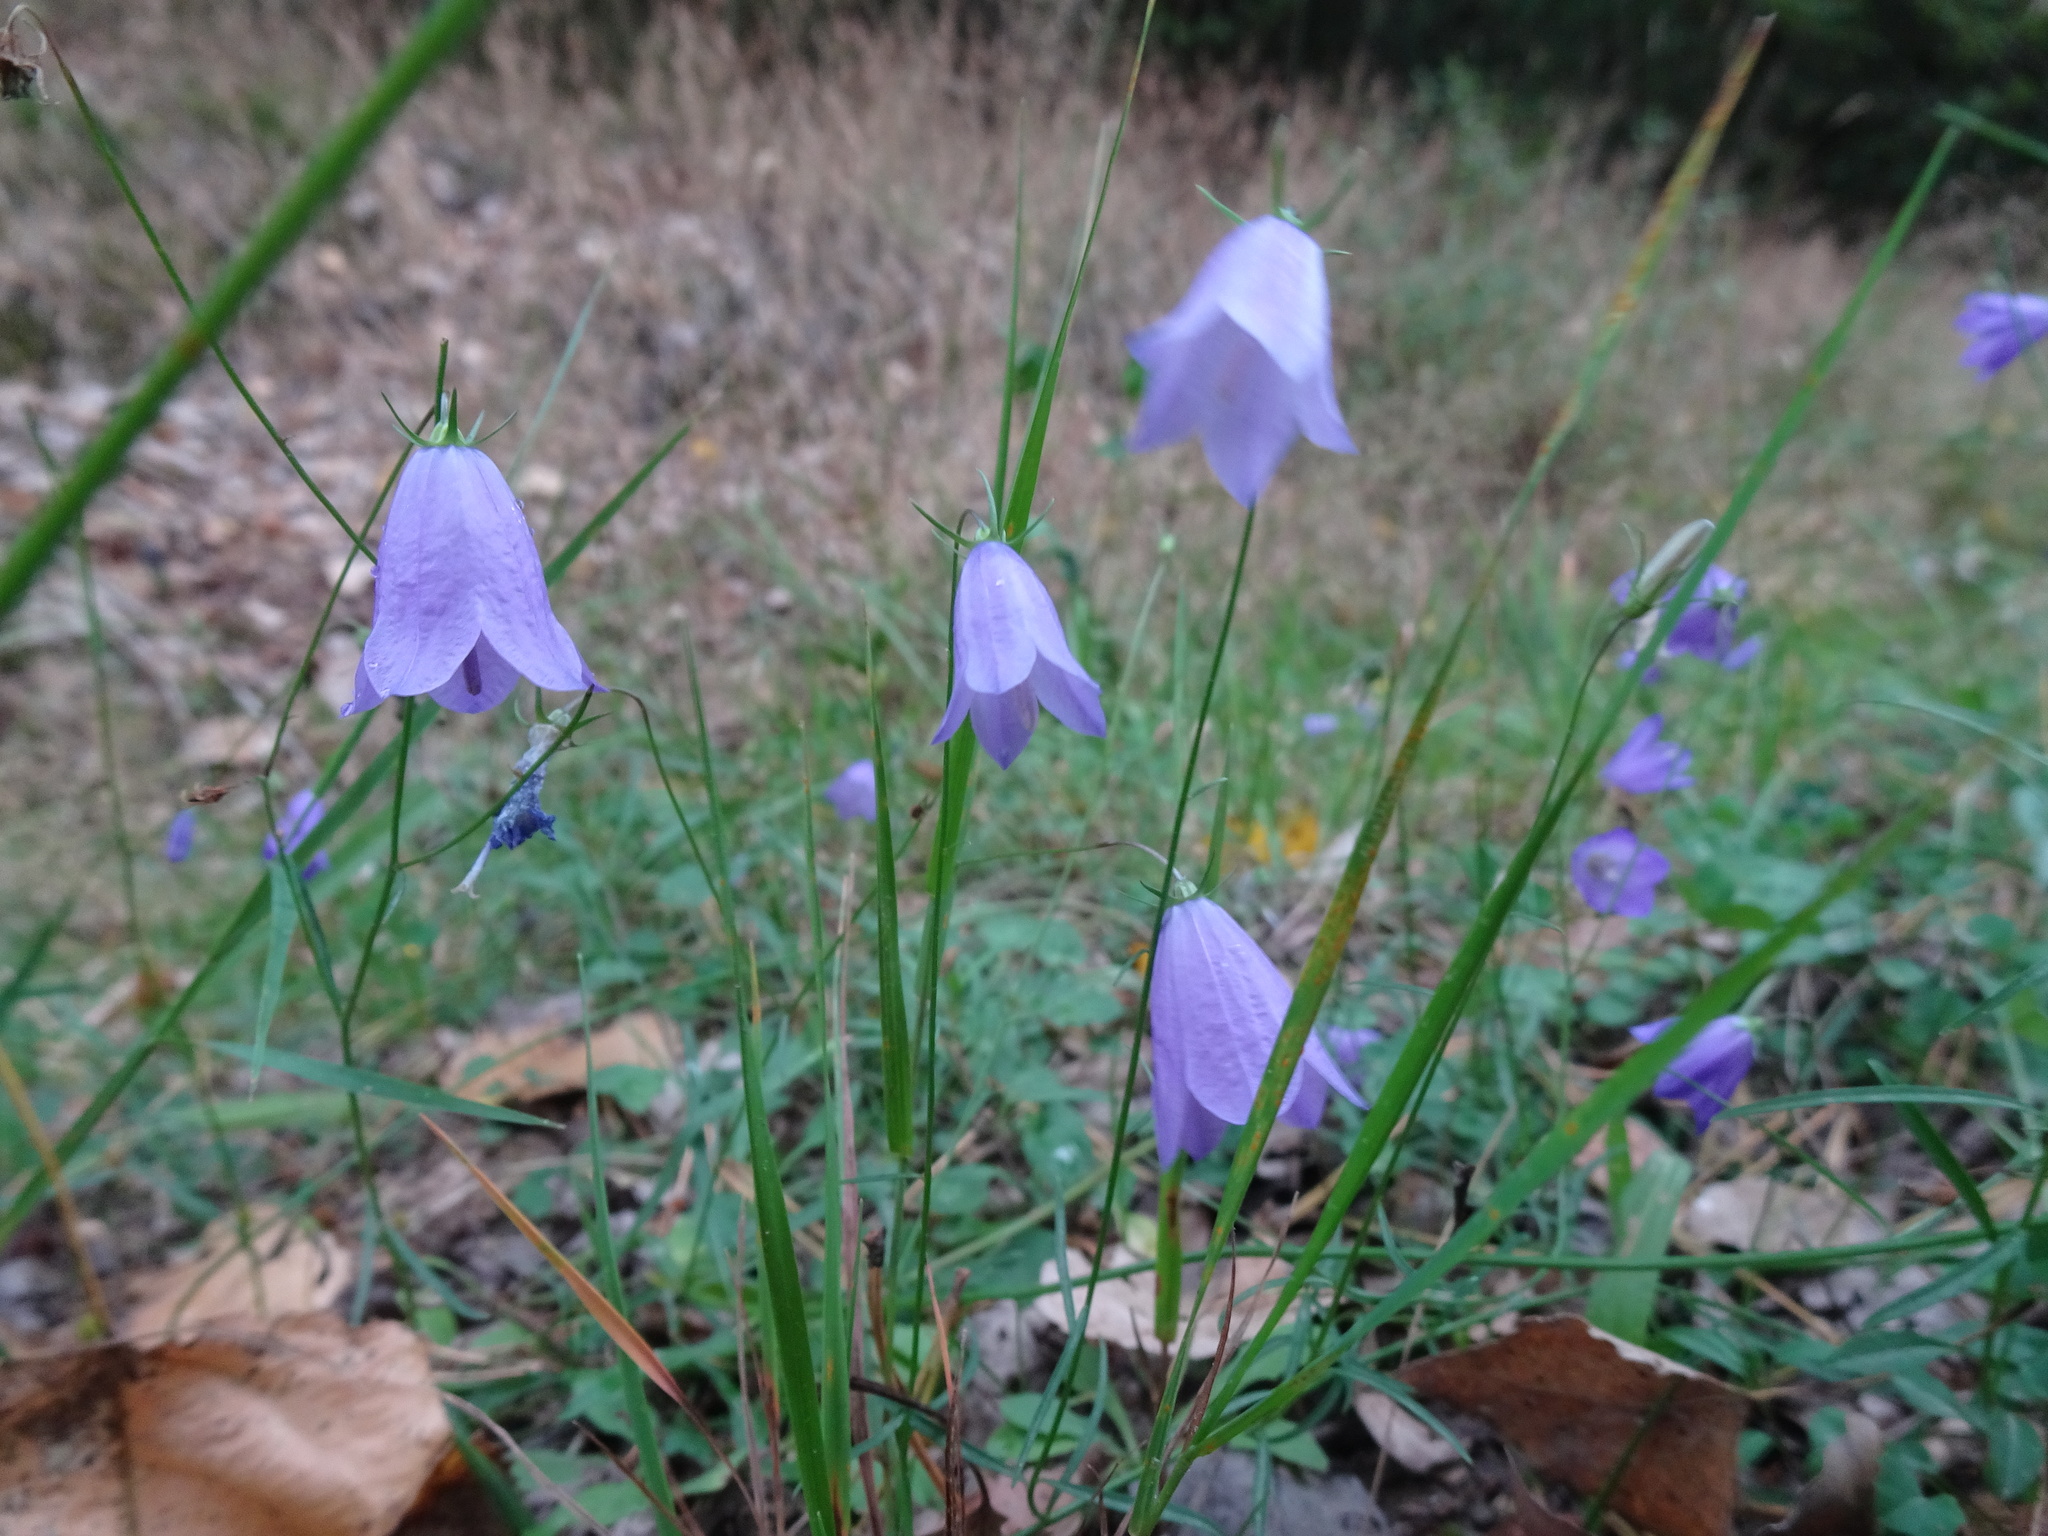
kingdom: Plantae
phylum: Tracheophyta
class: Magnoliopsida
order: Asterales
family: Campanulaceae
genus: Campanula
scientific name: Campanula rotundifolia
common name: Harebell
